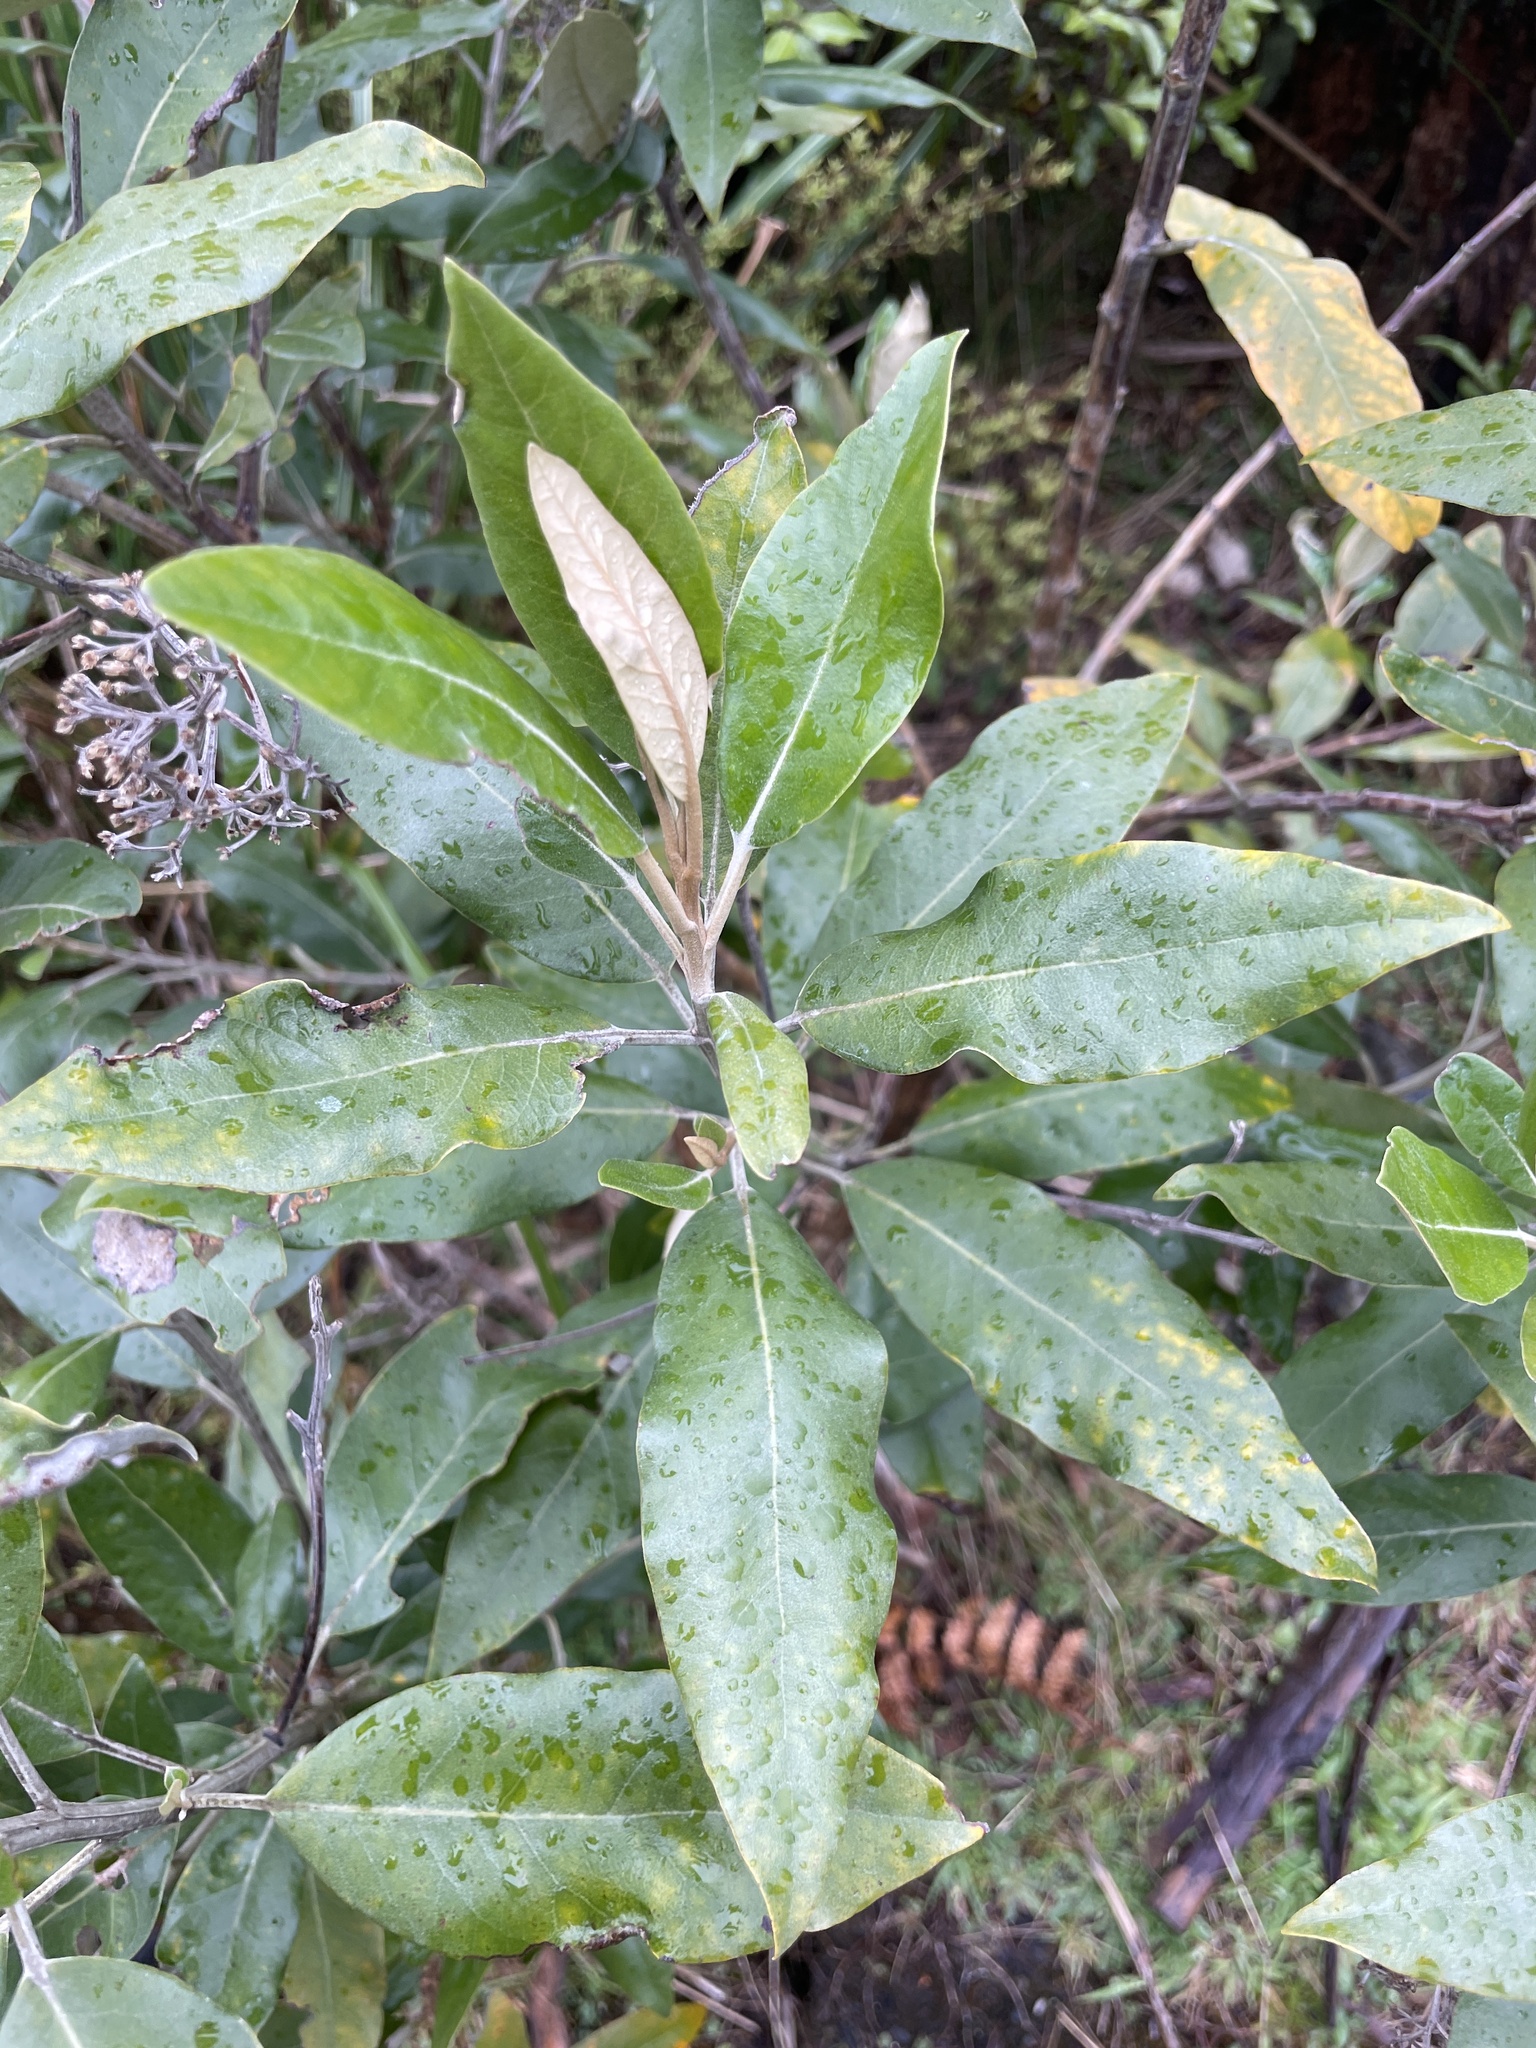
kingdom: Plantae
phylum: Tracheophyta
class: Magnoliopsida
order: Asterales
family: Asteraceae
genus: Olearia
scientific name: Olearia avicenniifolia
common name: Mangrove-leaf daisybush
